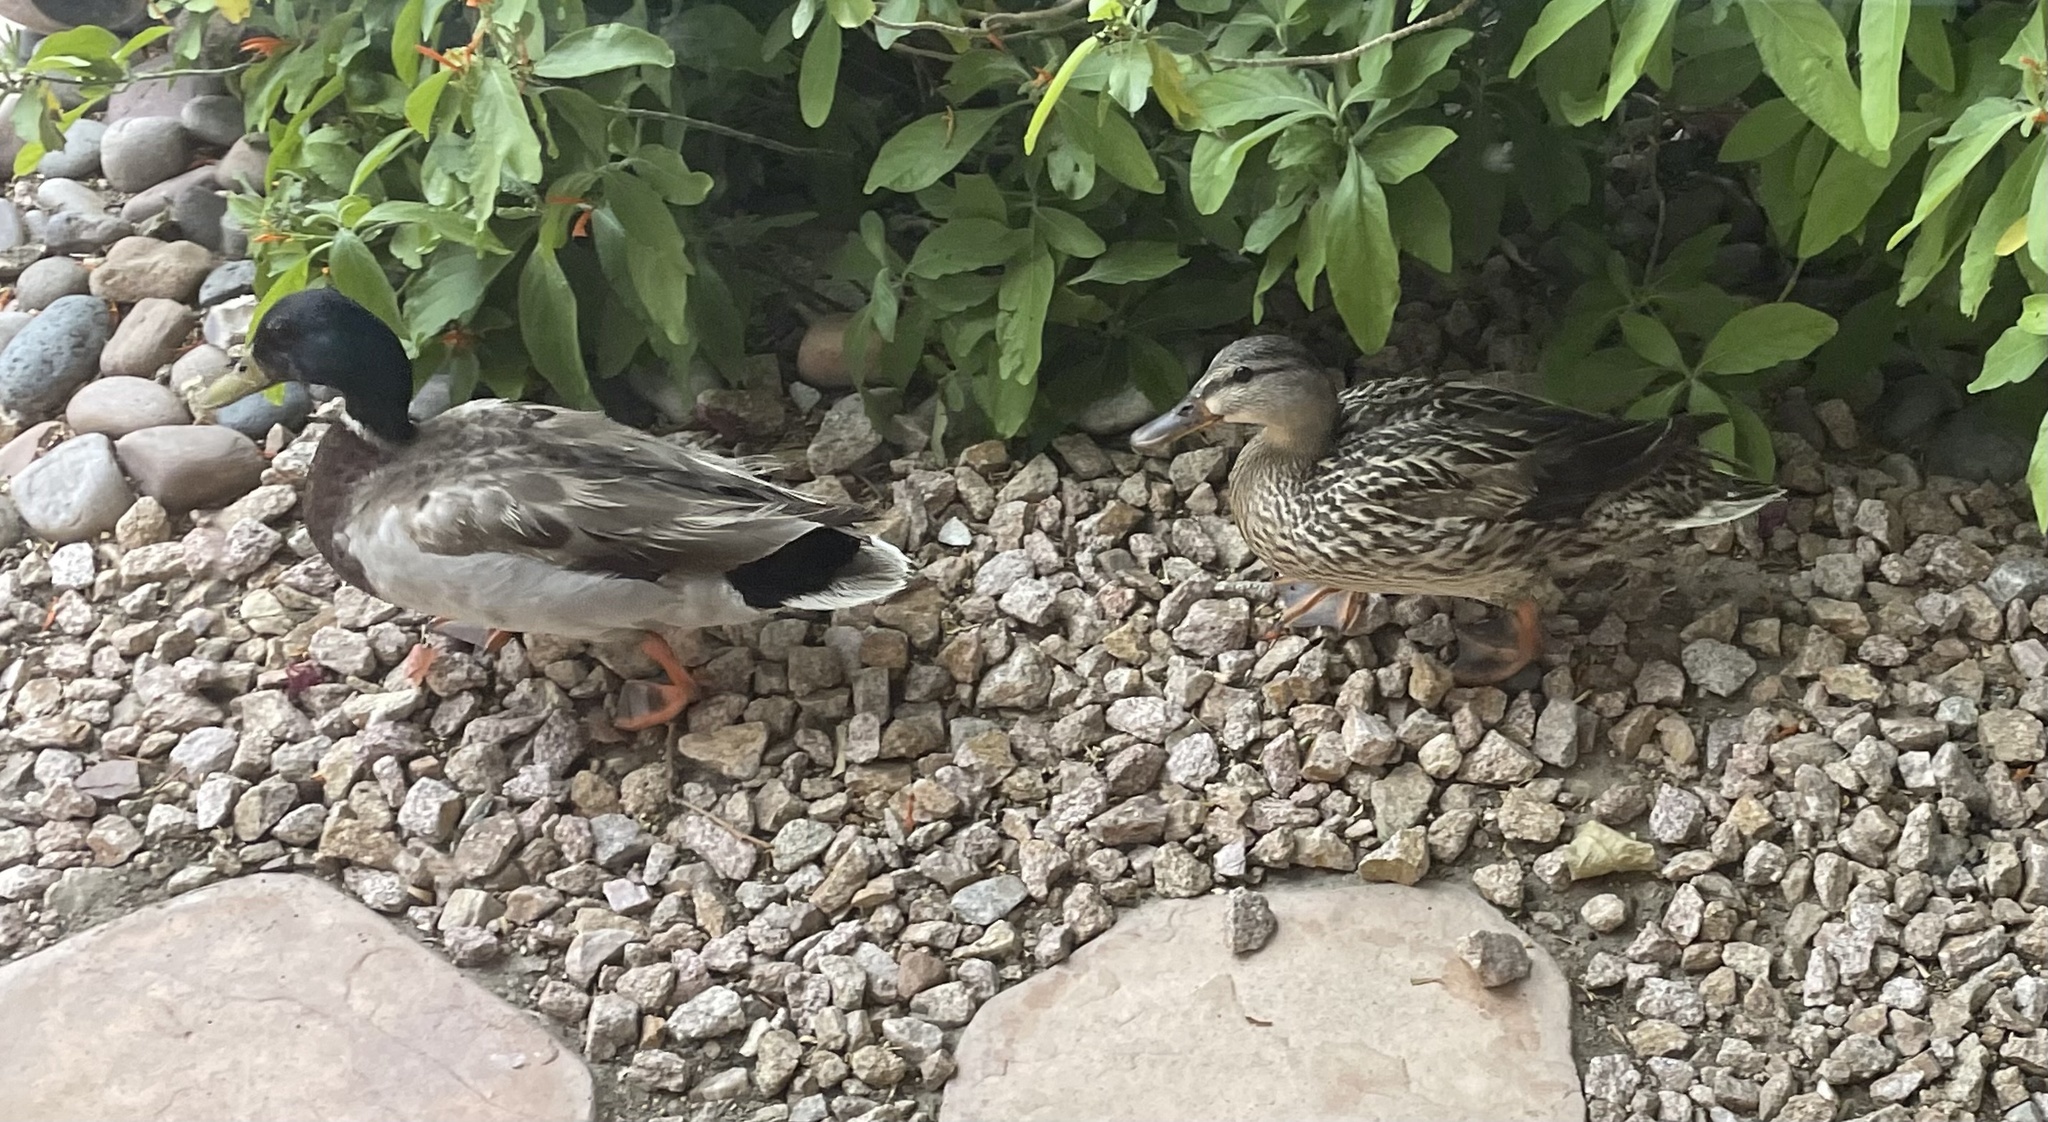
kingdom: Animalia
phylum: Chordata
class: Aves
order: Anseriformes
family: Anatidae
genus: Anas
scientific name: Anas platyrhynchos
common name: Mallard
